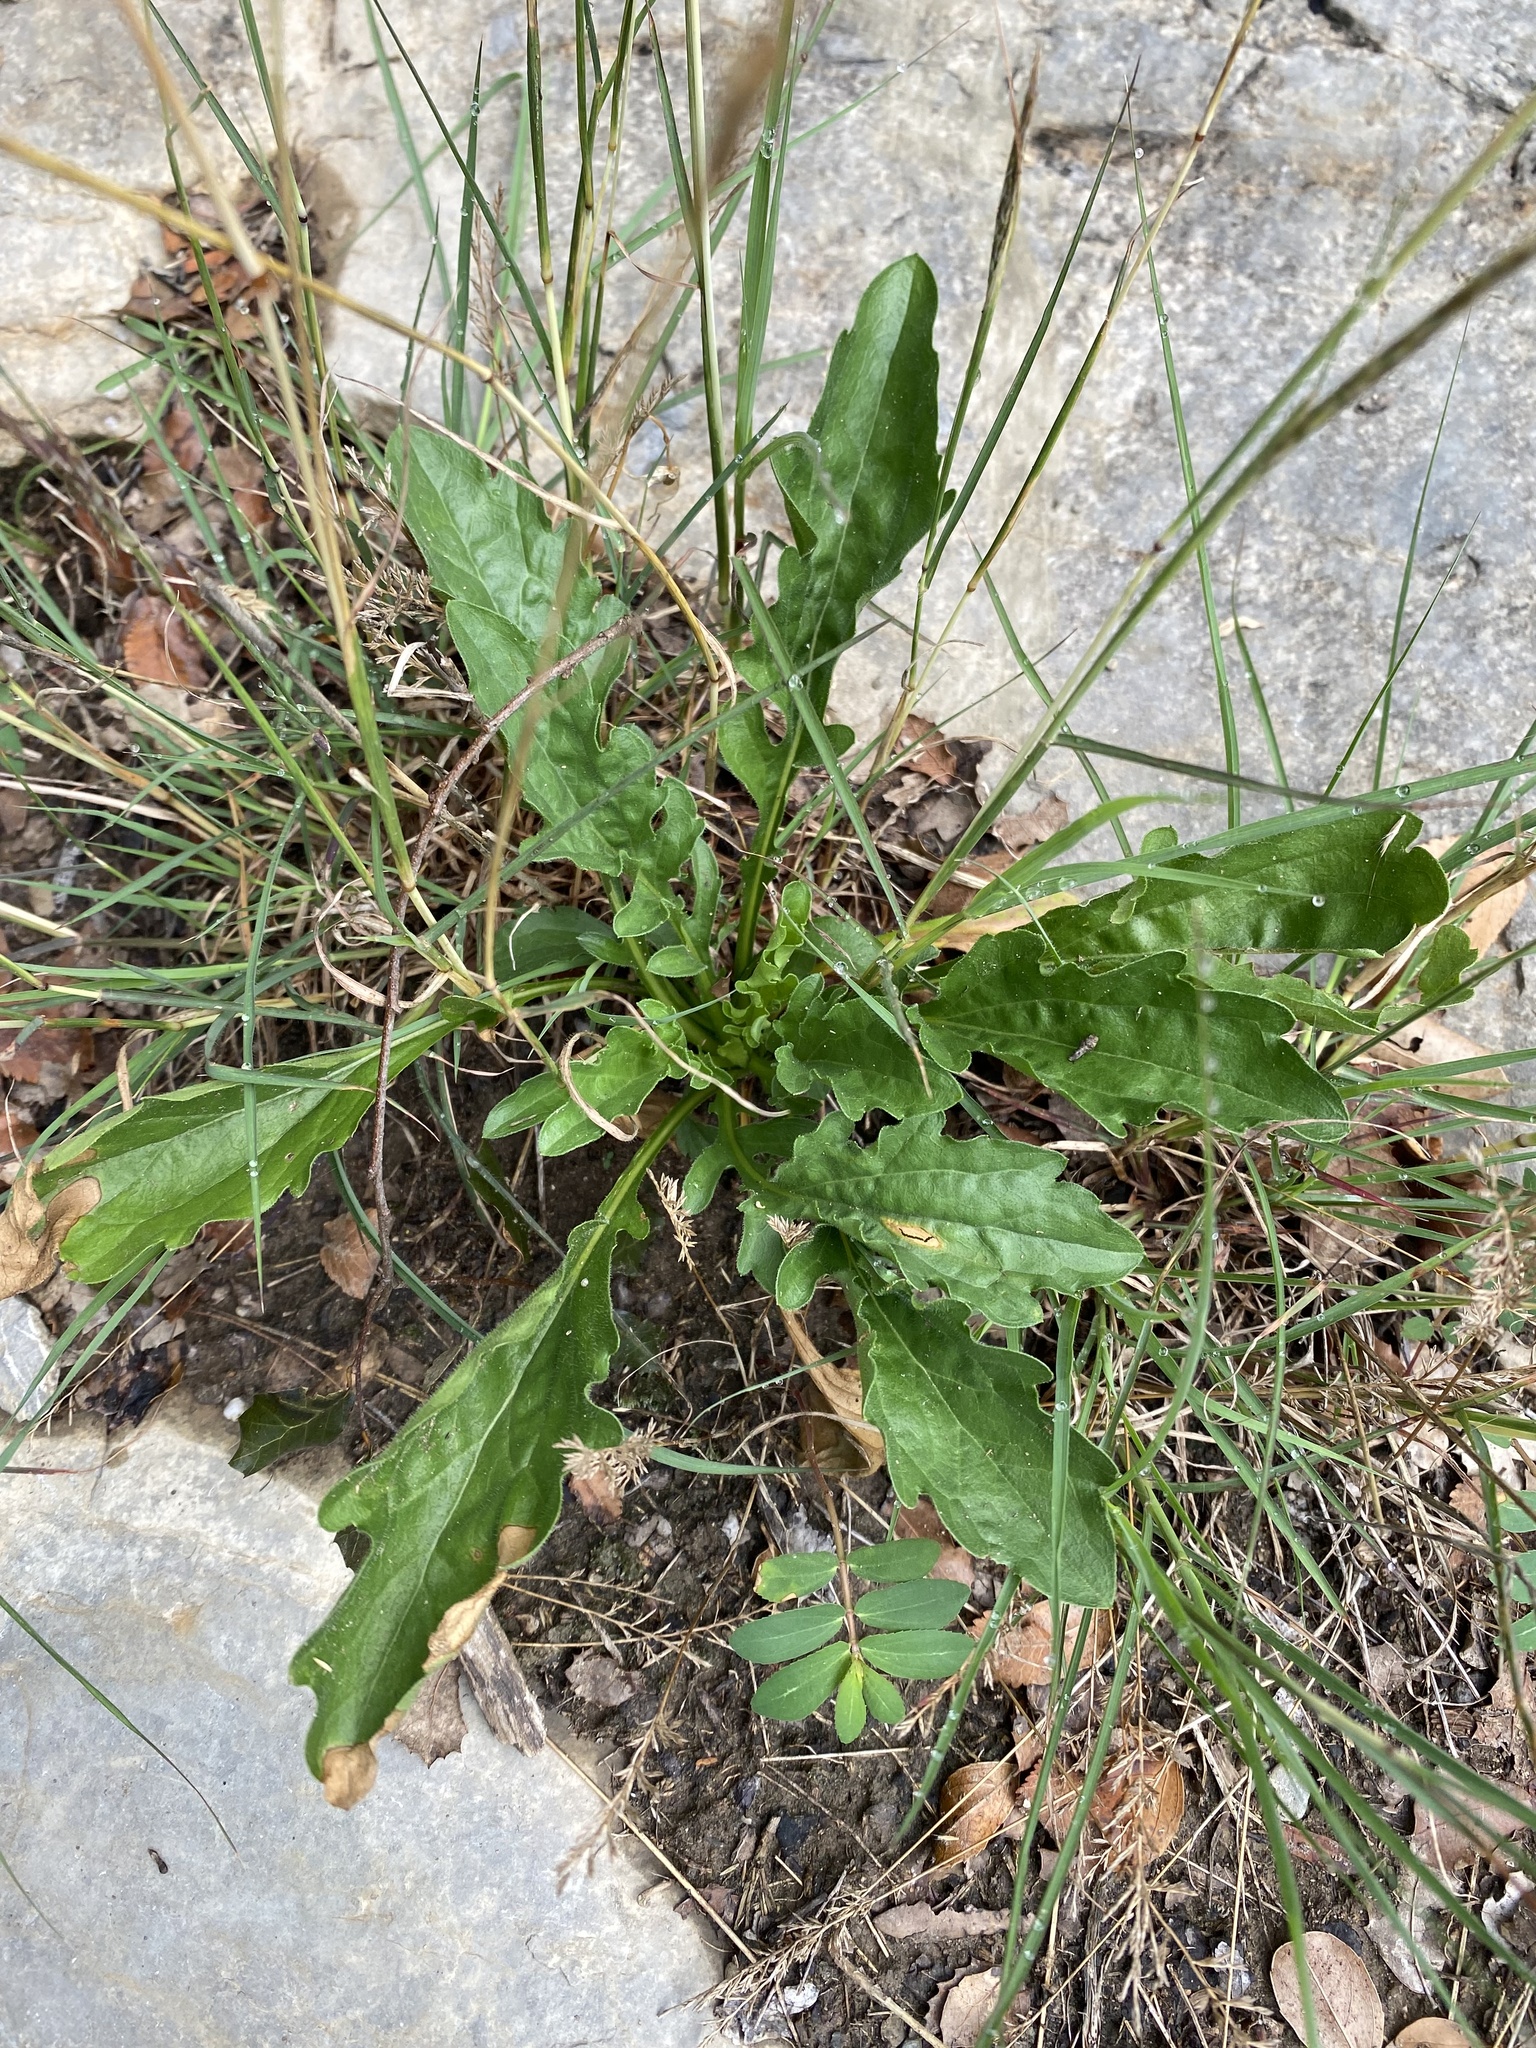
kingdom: Plantae
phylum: Tracheophyta
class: Magnoliopsida
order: Caryophyllales
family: Polygonaceae
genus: Rumex
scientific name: Rumex crispus
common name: Curled dock
